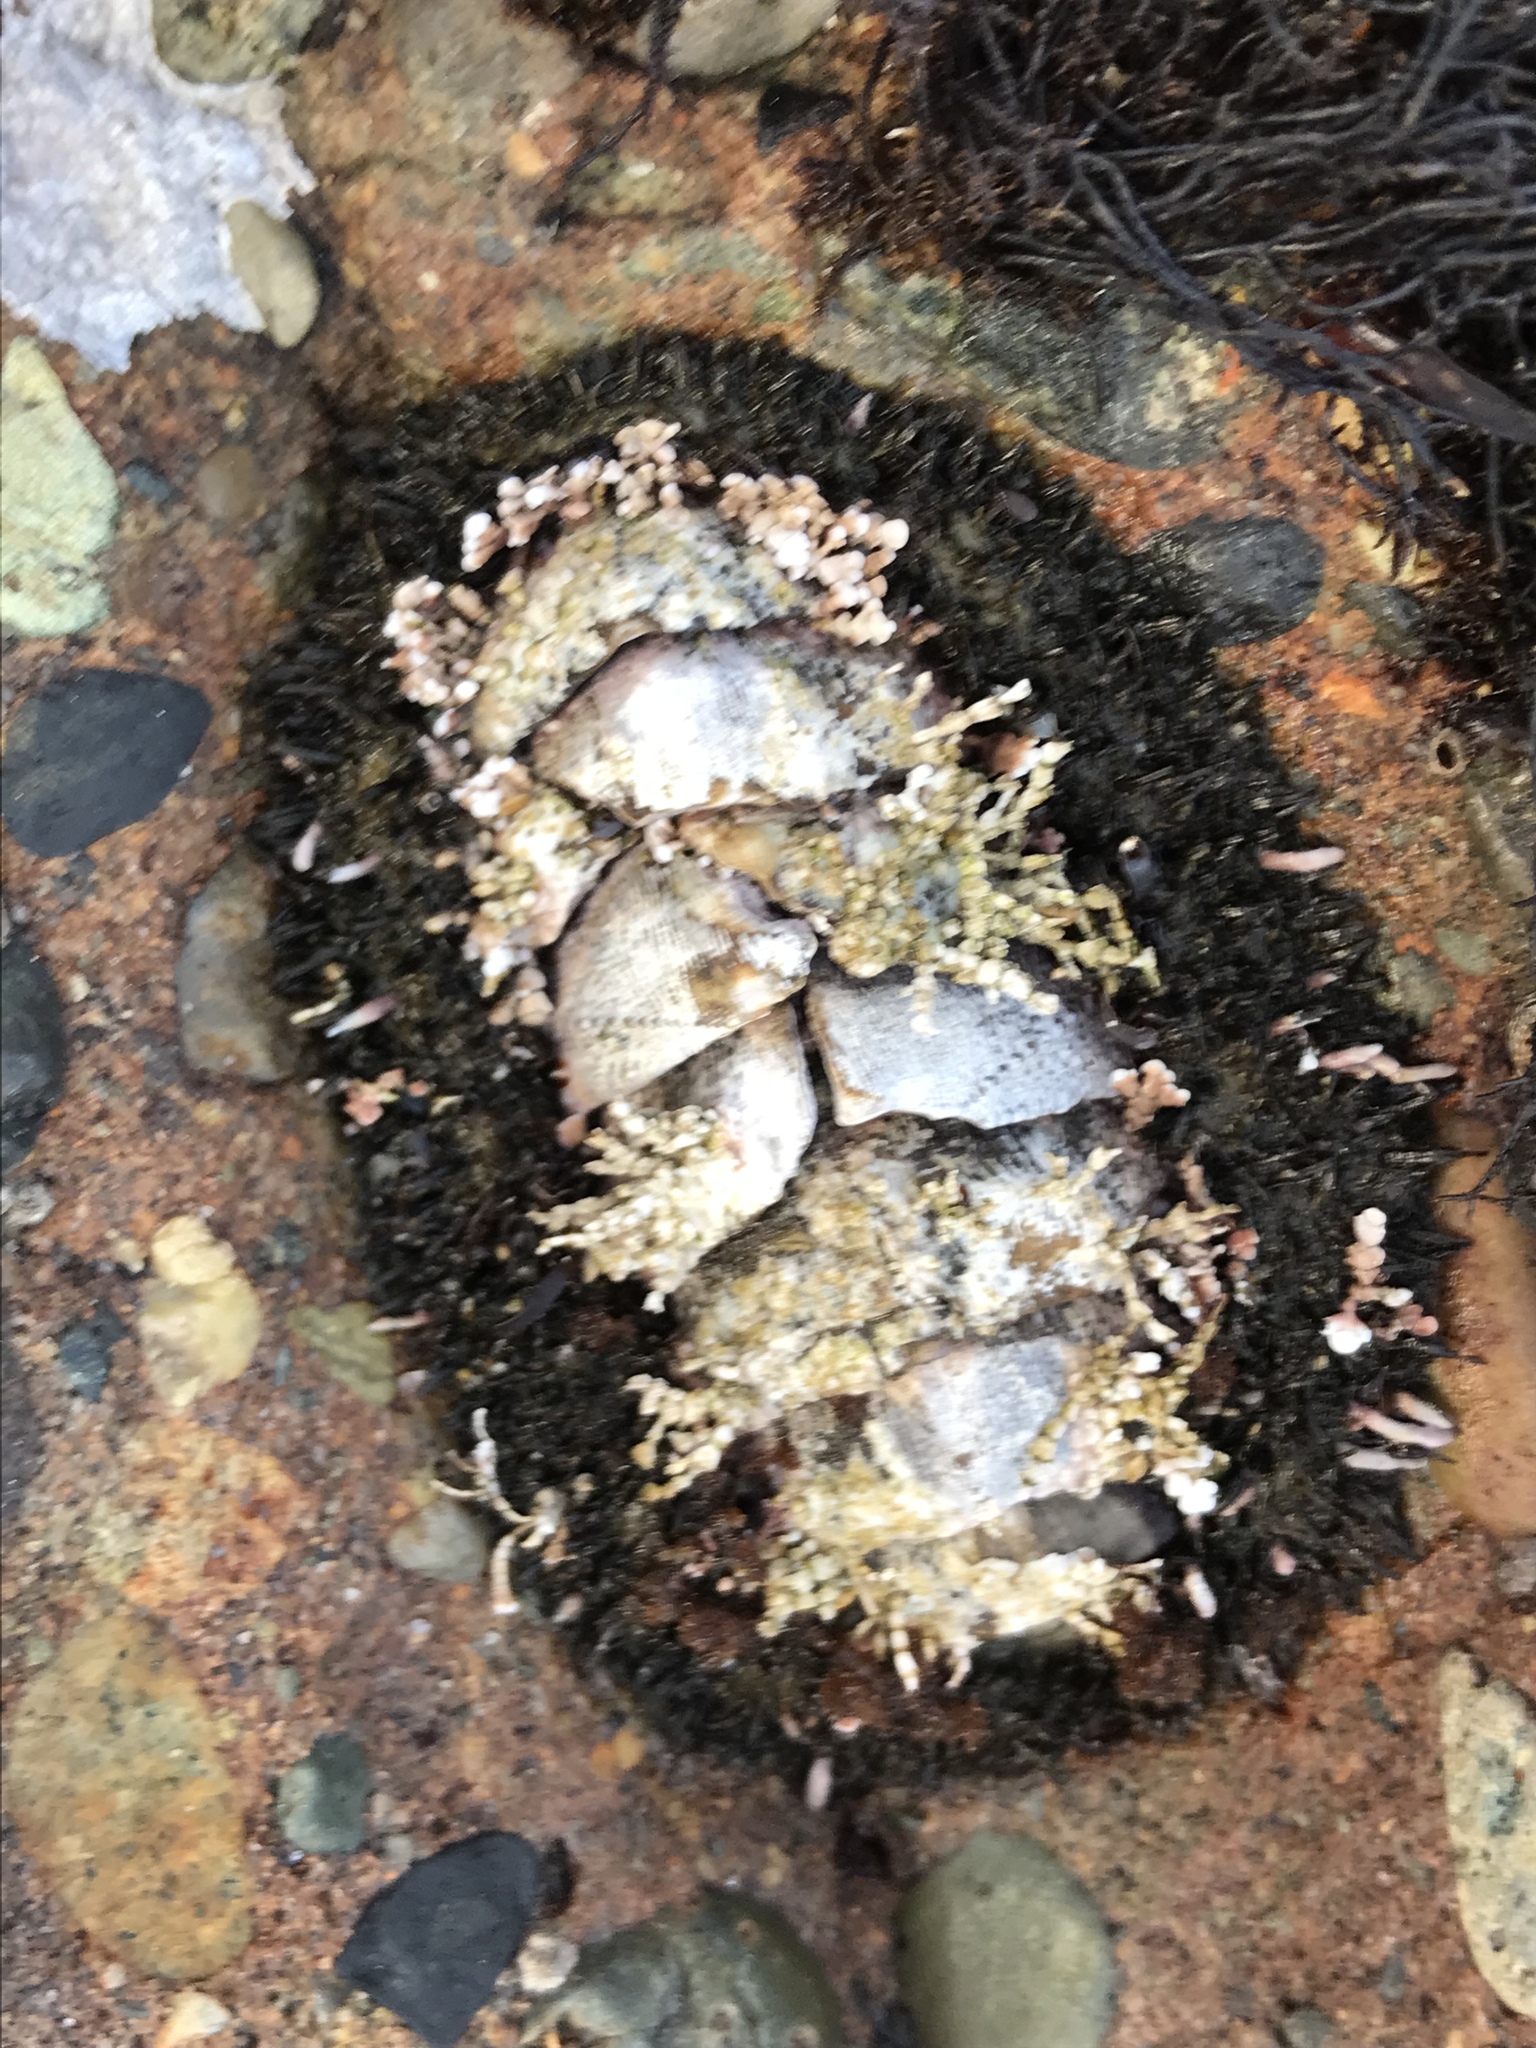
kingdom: Animalia
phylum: Mollusca
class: Polyplacophora
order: Chitonida
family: Mopaliidae
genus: Mopalia
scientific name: Mopalia muscosa
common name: Mossy chiton
